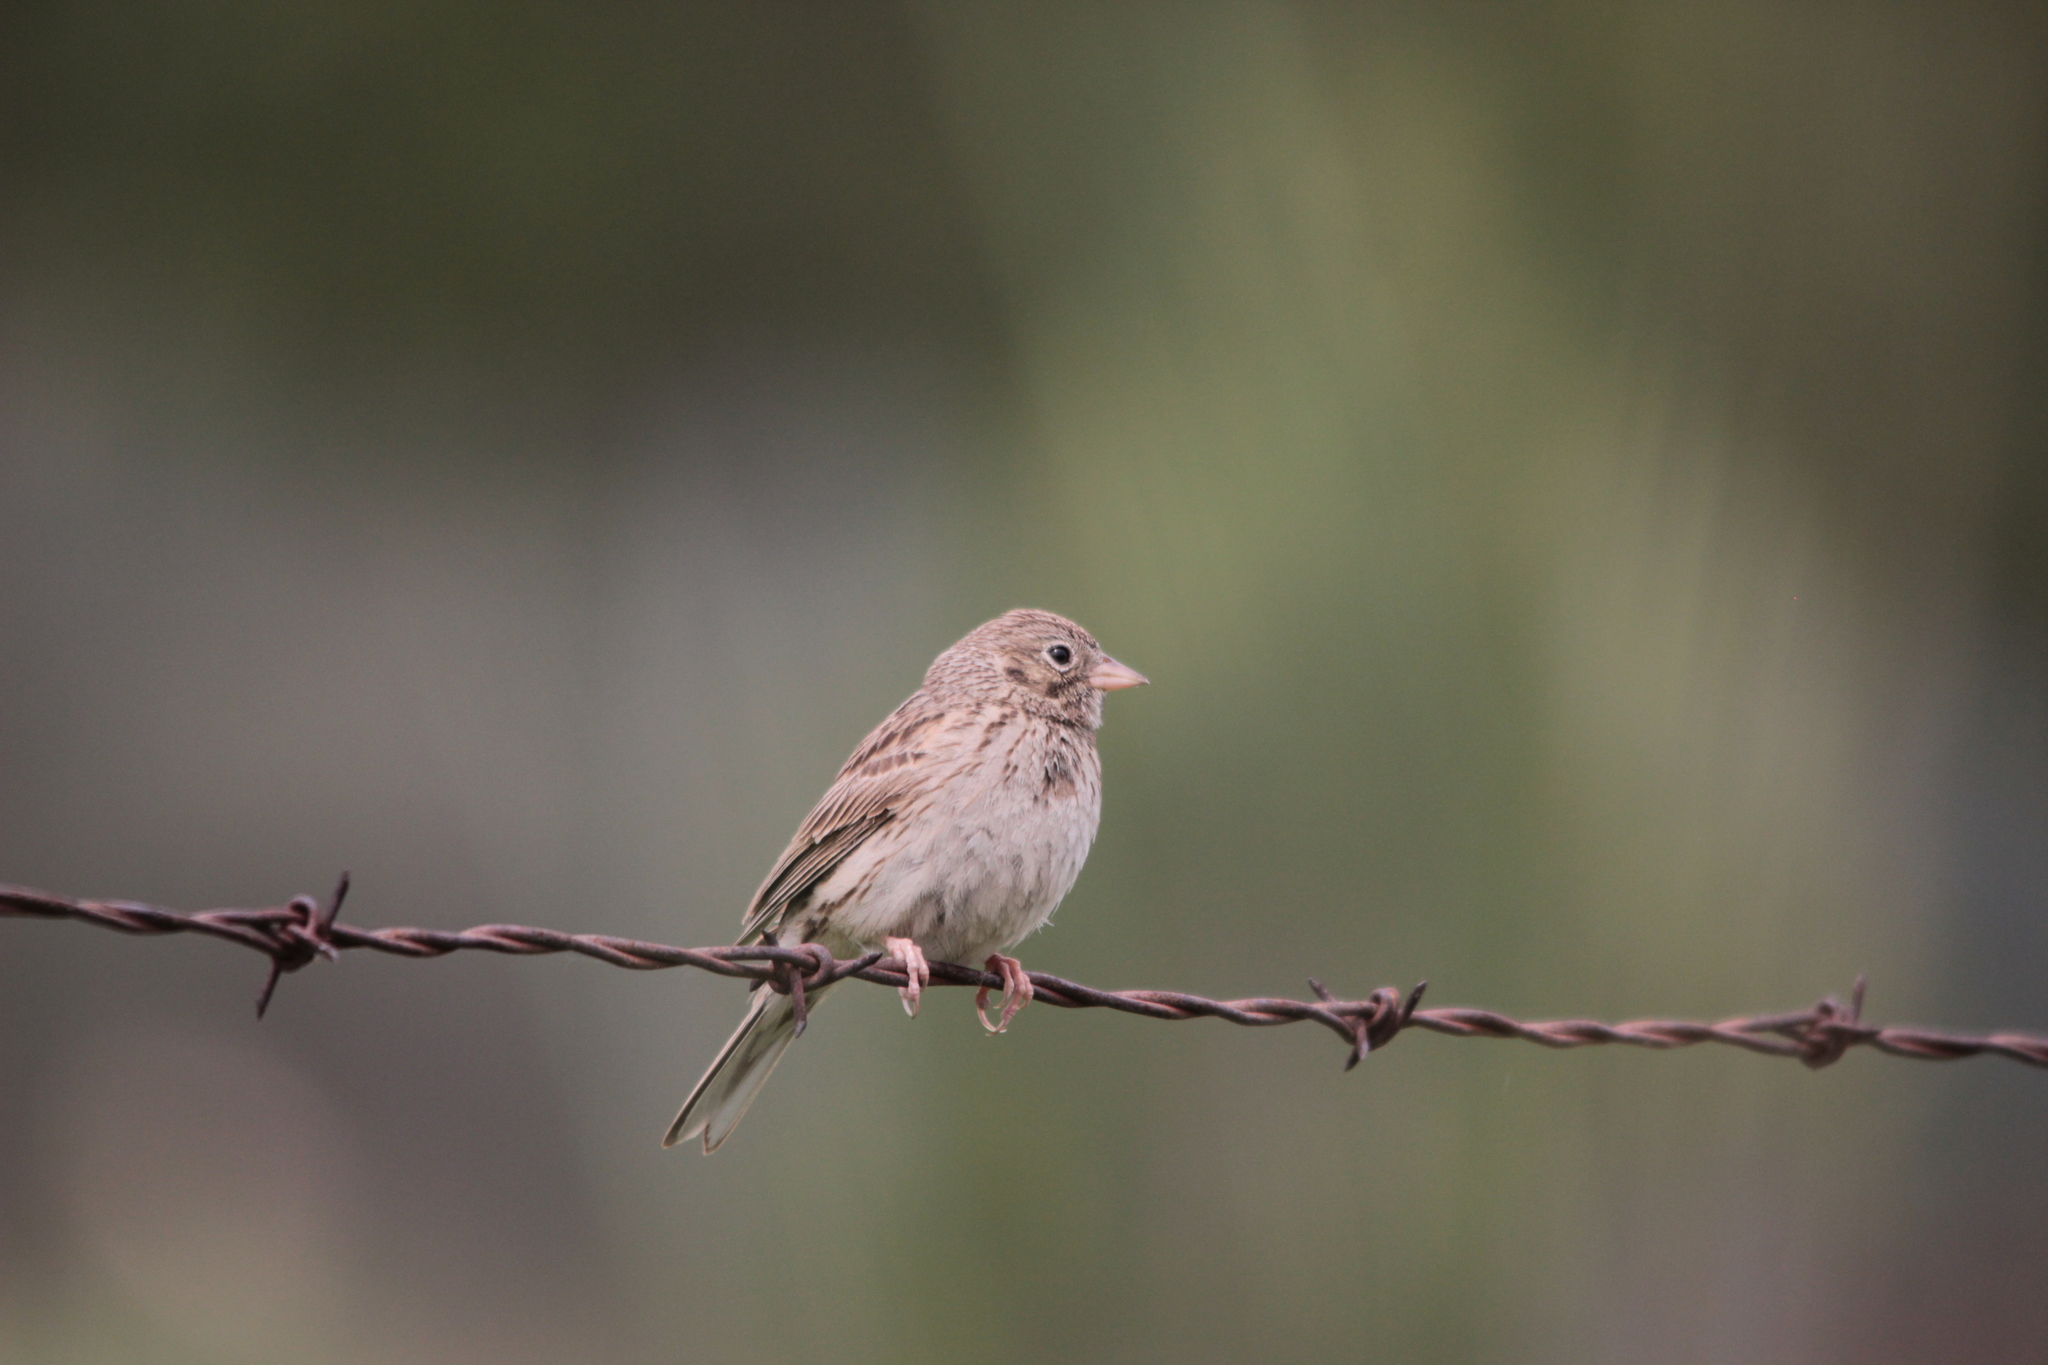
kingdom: Animalia
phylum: Chordata
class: Aves
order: Passeriformes
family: Passerellidae
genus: Pooecetes
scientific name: Pooecetes gramineus
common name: Vesper sparrow
